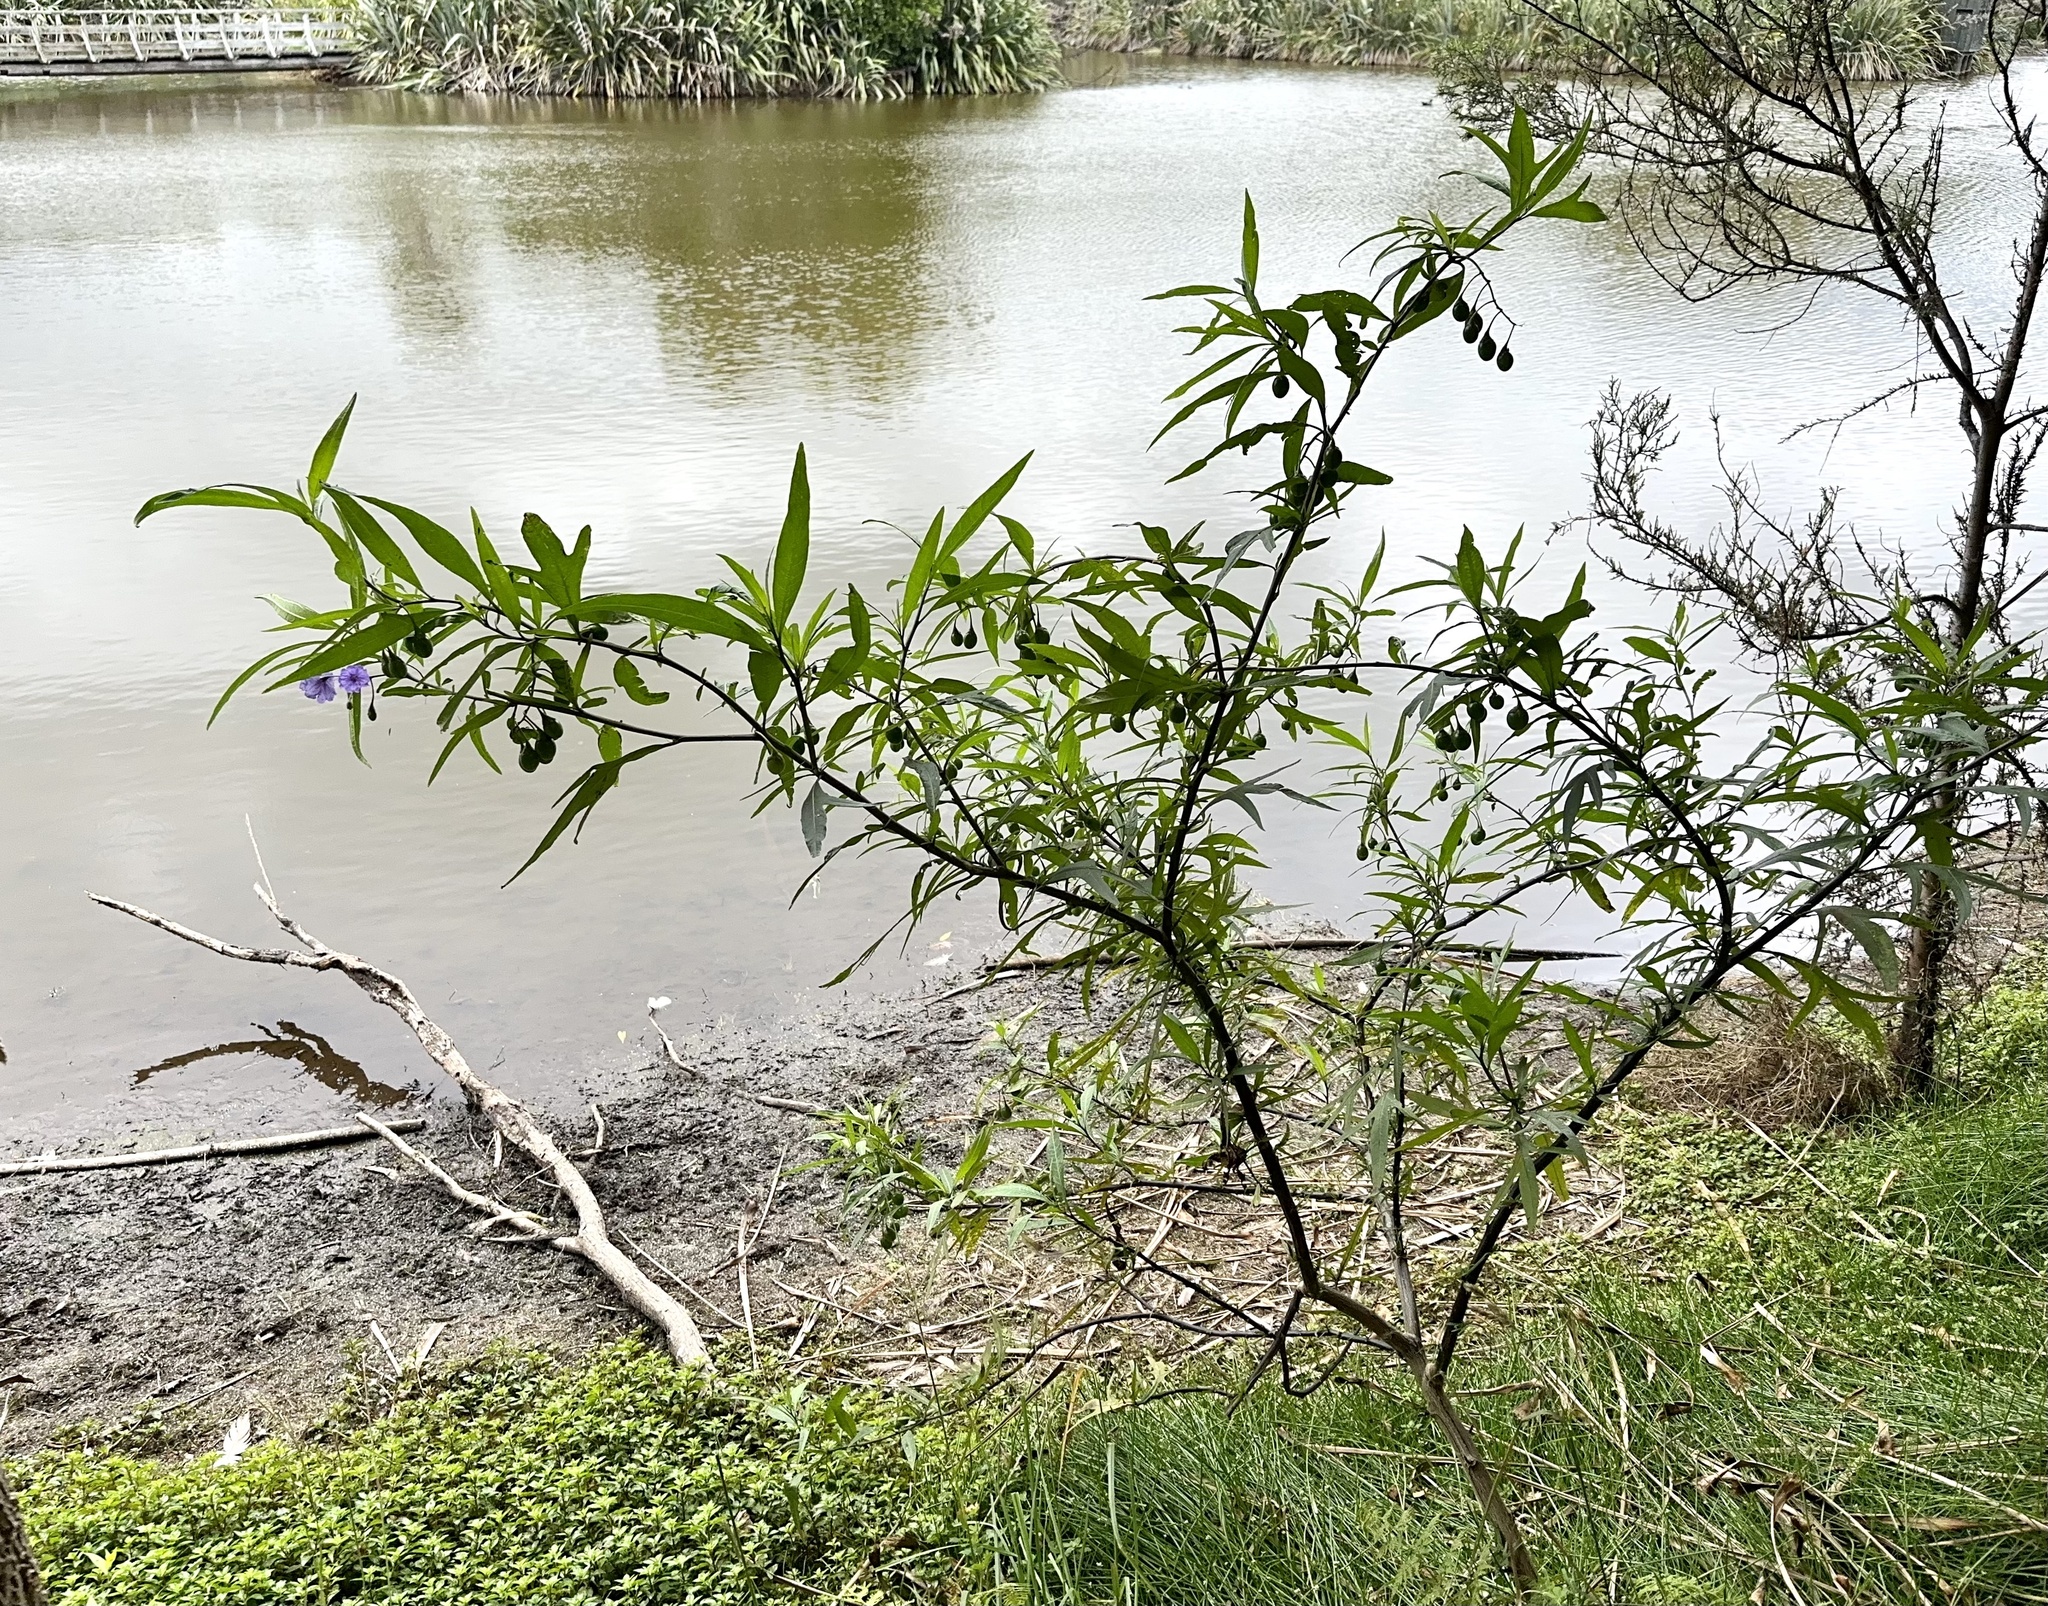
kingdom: Plantae
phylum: Tracheophyta
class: Magnoliopsida
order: Solanales
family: Solanaceae
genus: Solanum
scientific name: Solanum laciniatum
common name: Kangaroo-apple
